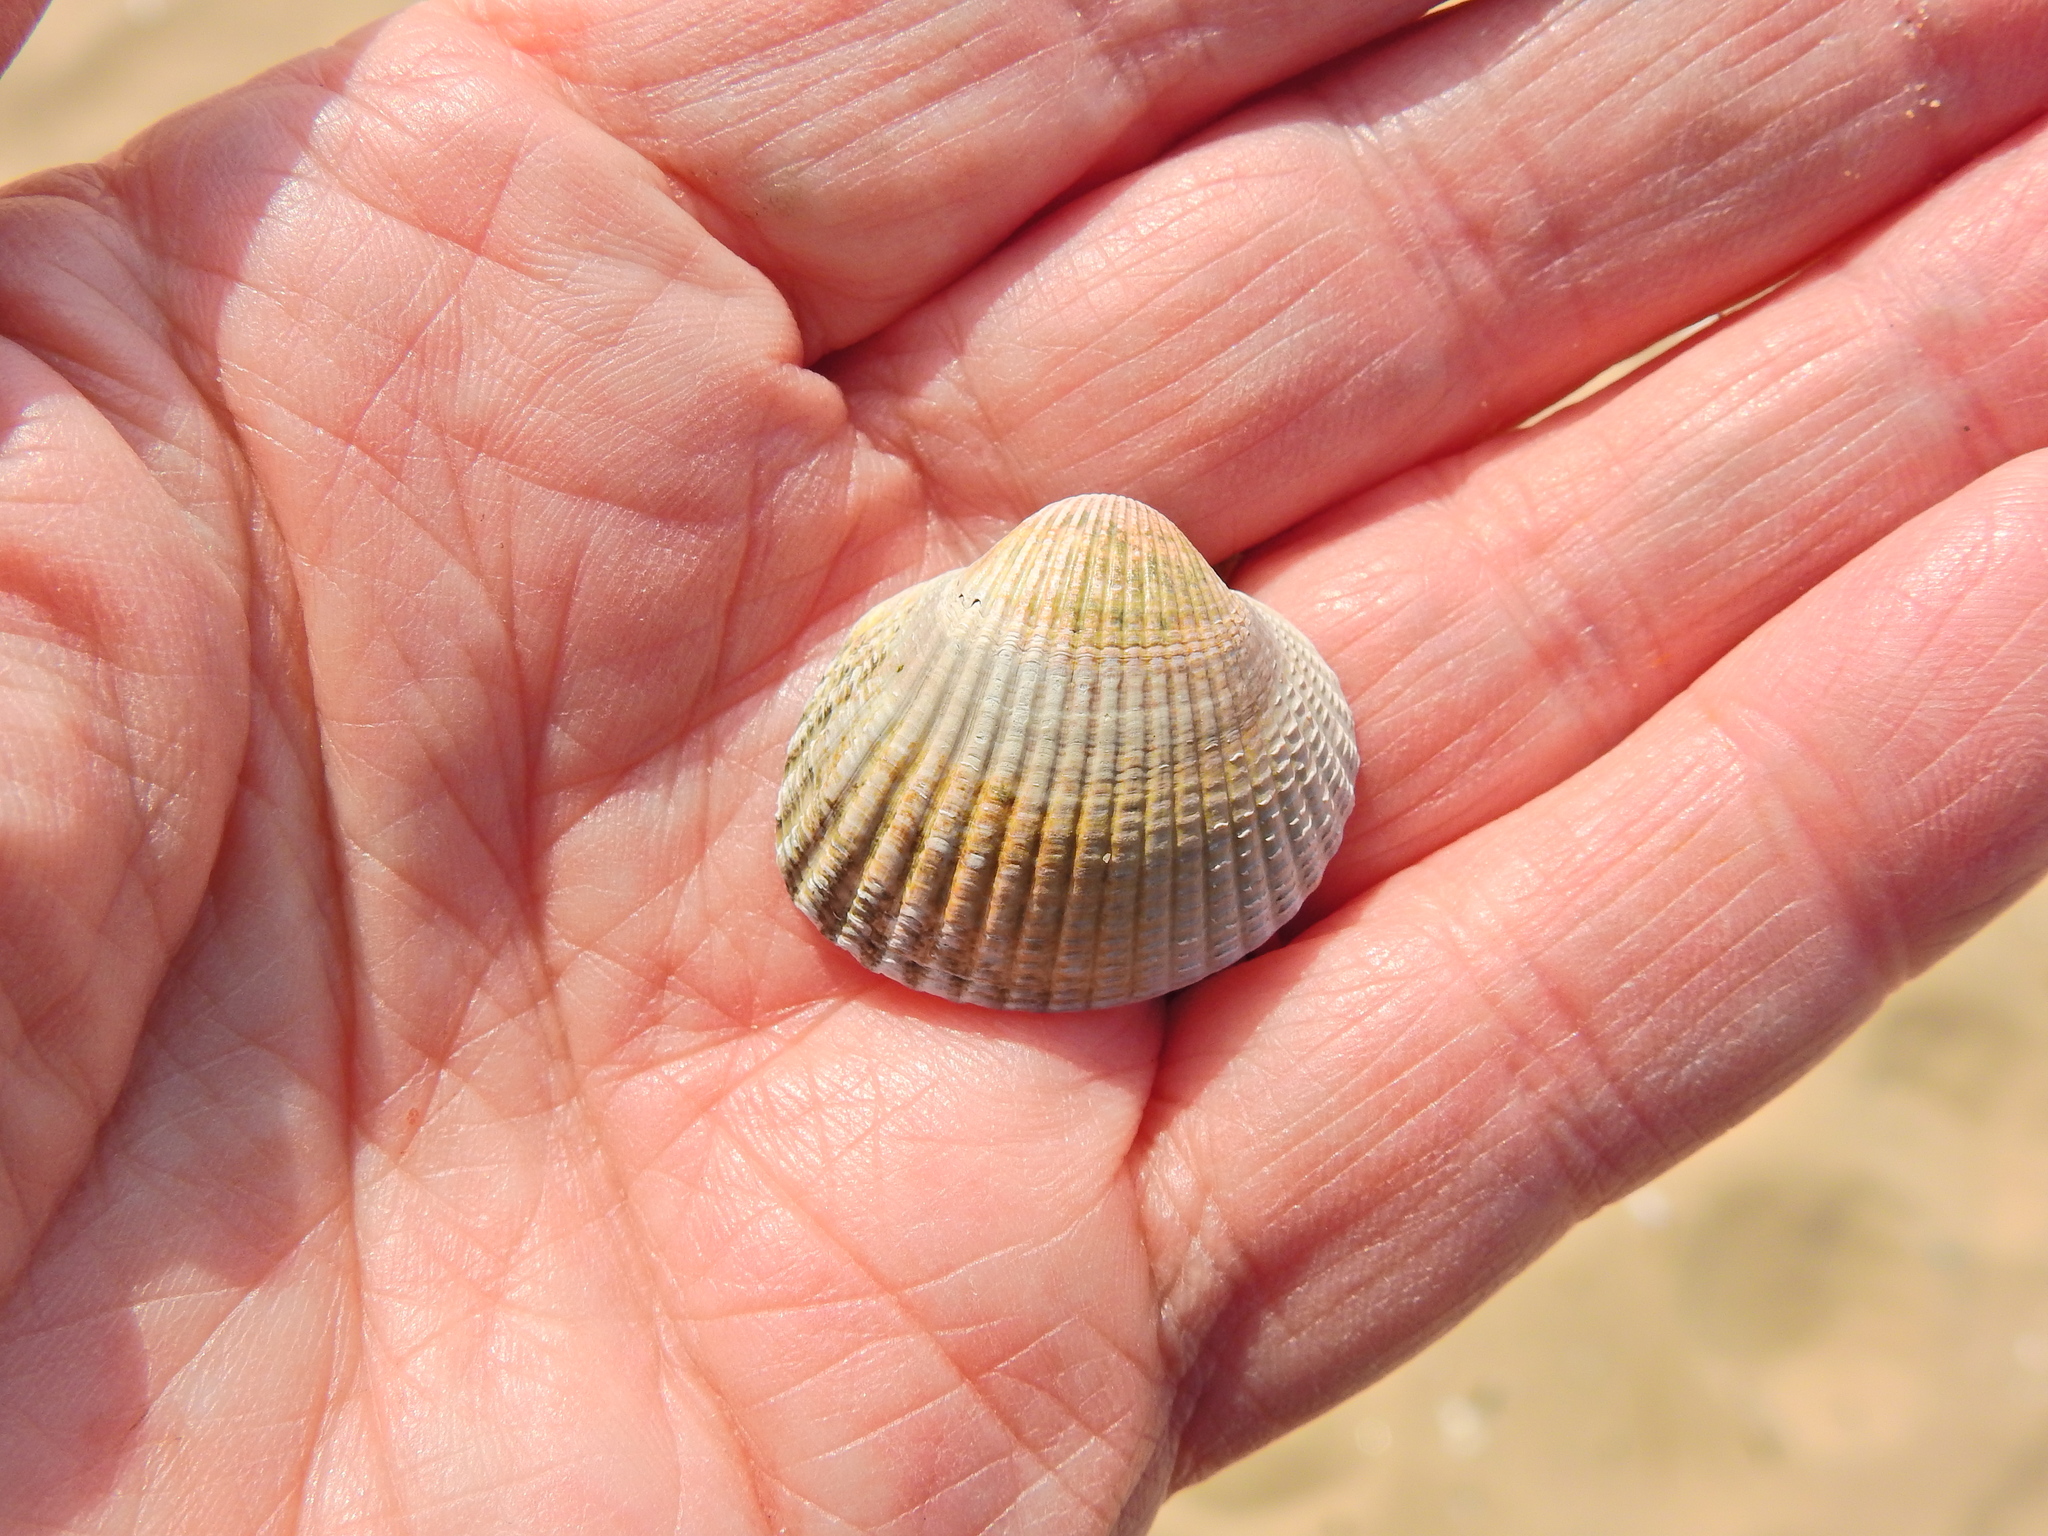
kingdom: Animalia
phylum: Mollusca
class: Bivalvia
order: Cardiida
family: Cardiidae
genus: Cerastoderma
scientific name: Cerastoderma edule
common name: Common cockle
